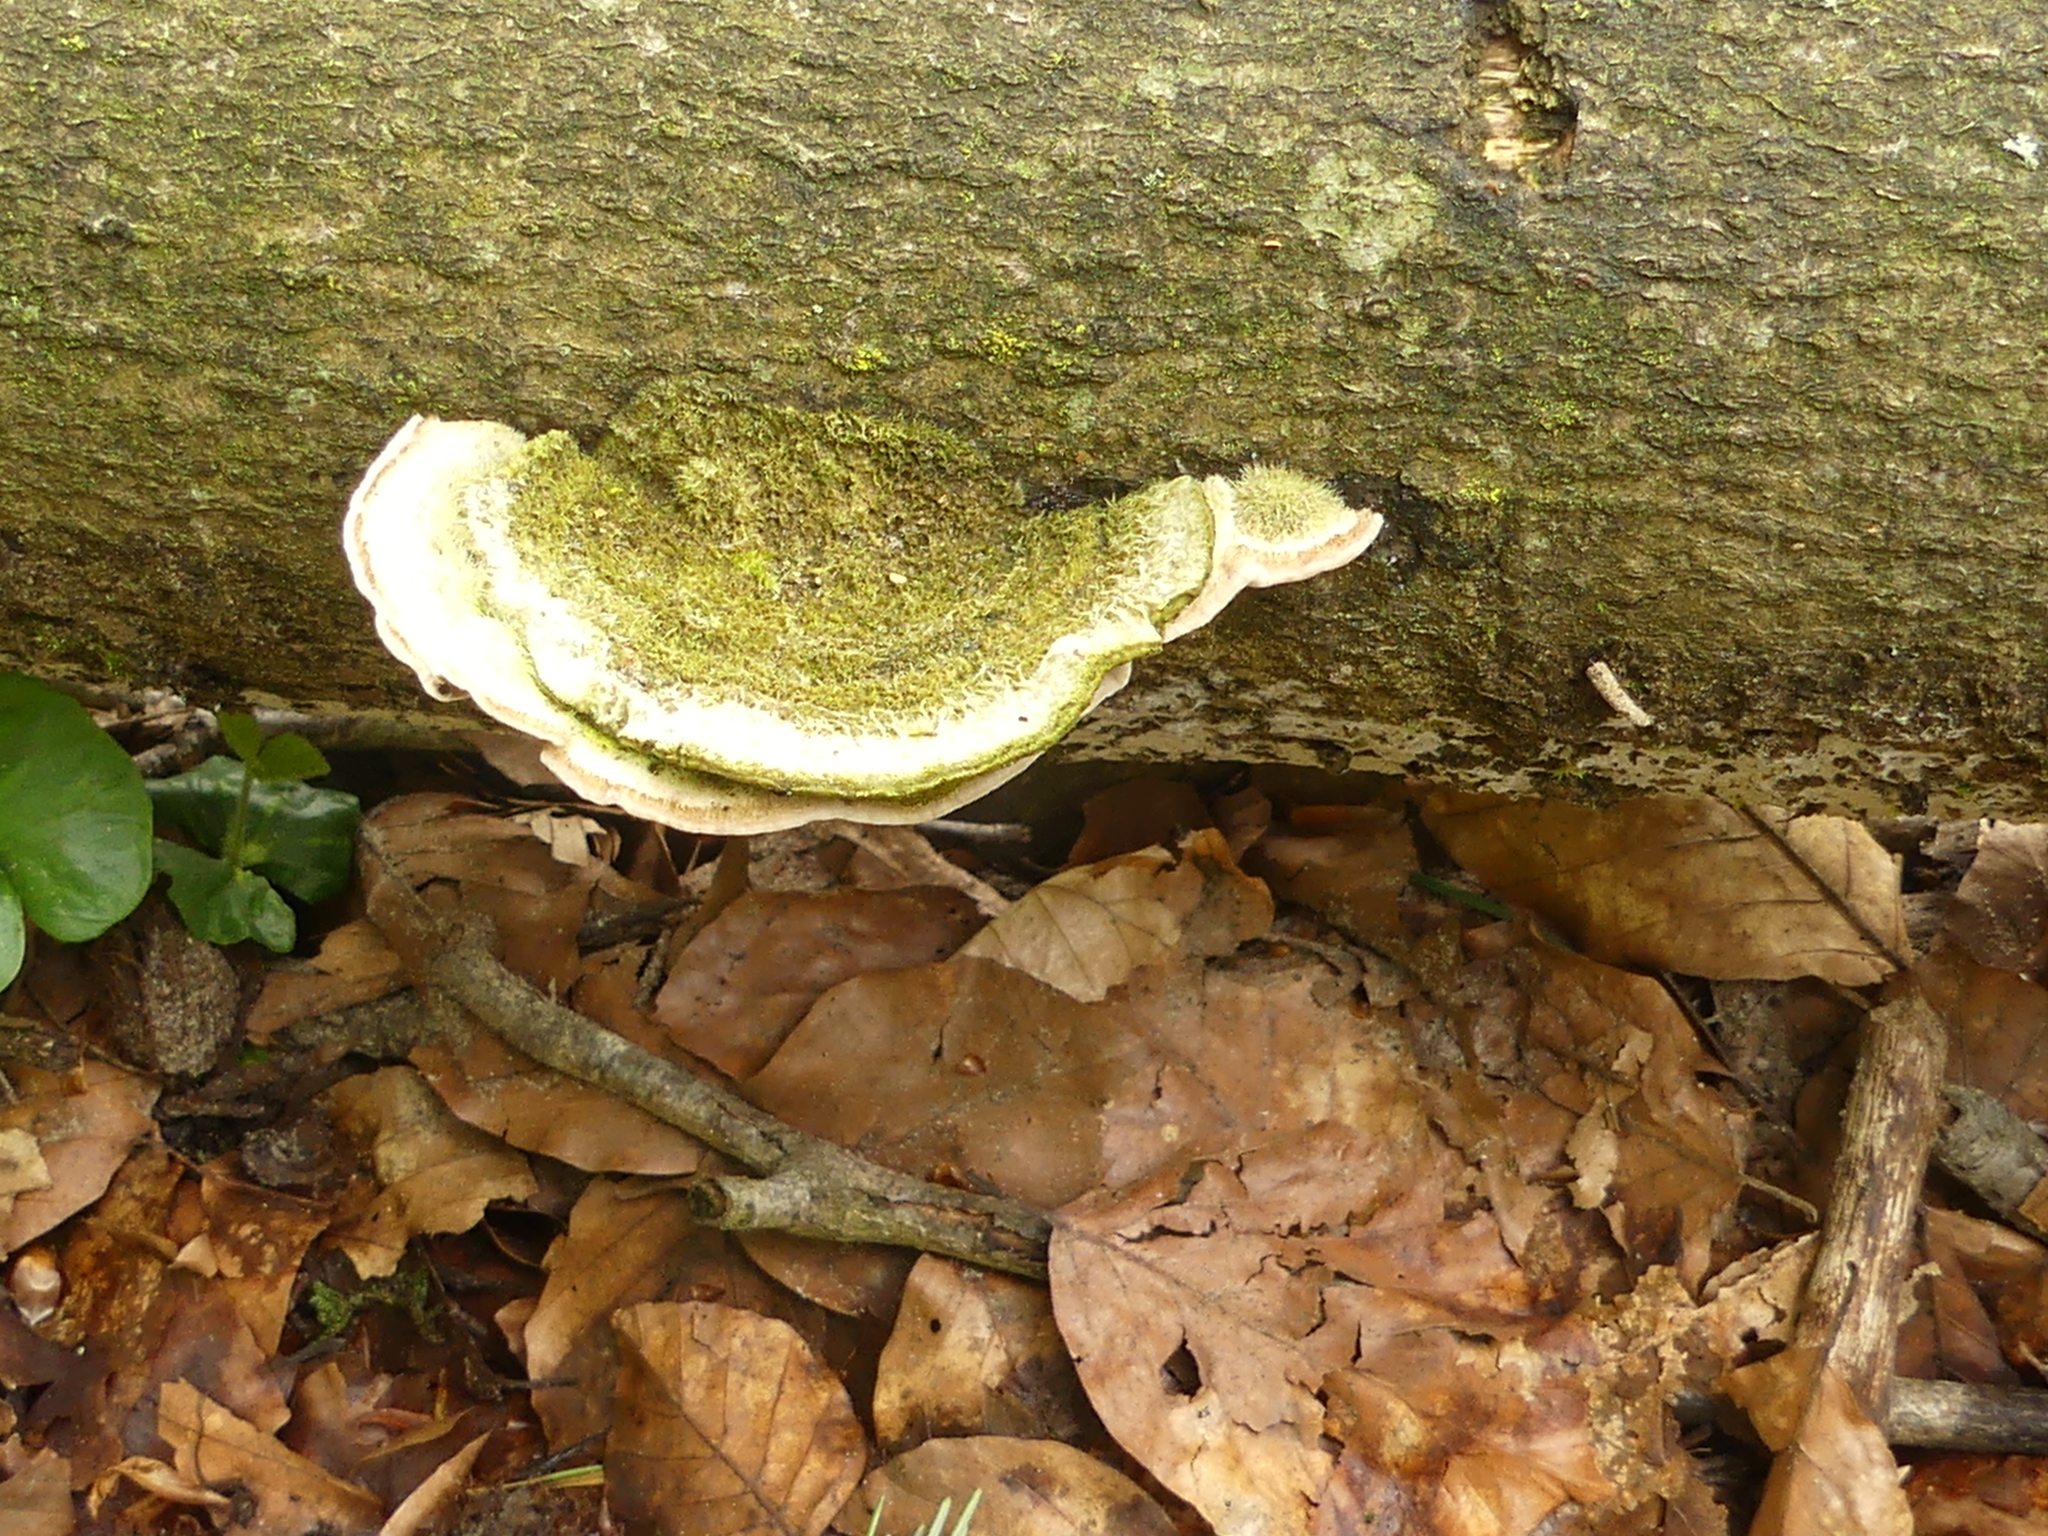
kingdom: Fungi
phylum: Basidiomycota
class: Agaricomycetes
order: Polyporales
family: Polyporaceae
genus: Trametes
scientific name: Trametes hirsuta
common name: Hairy bracket
